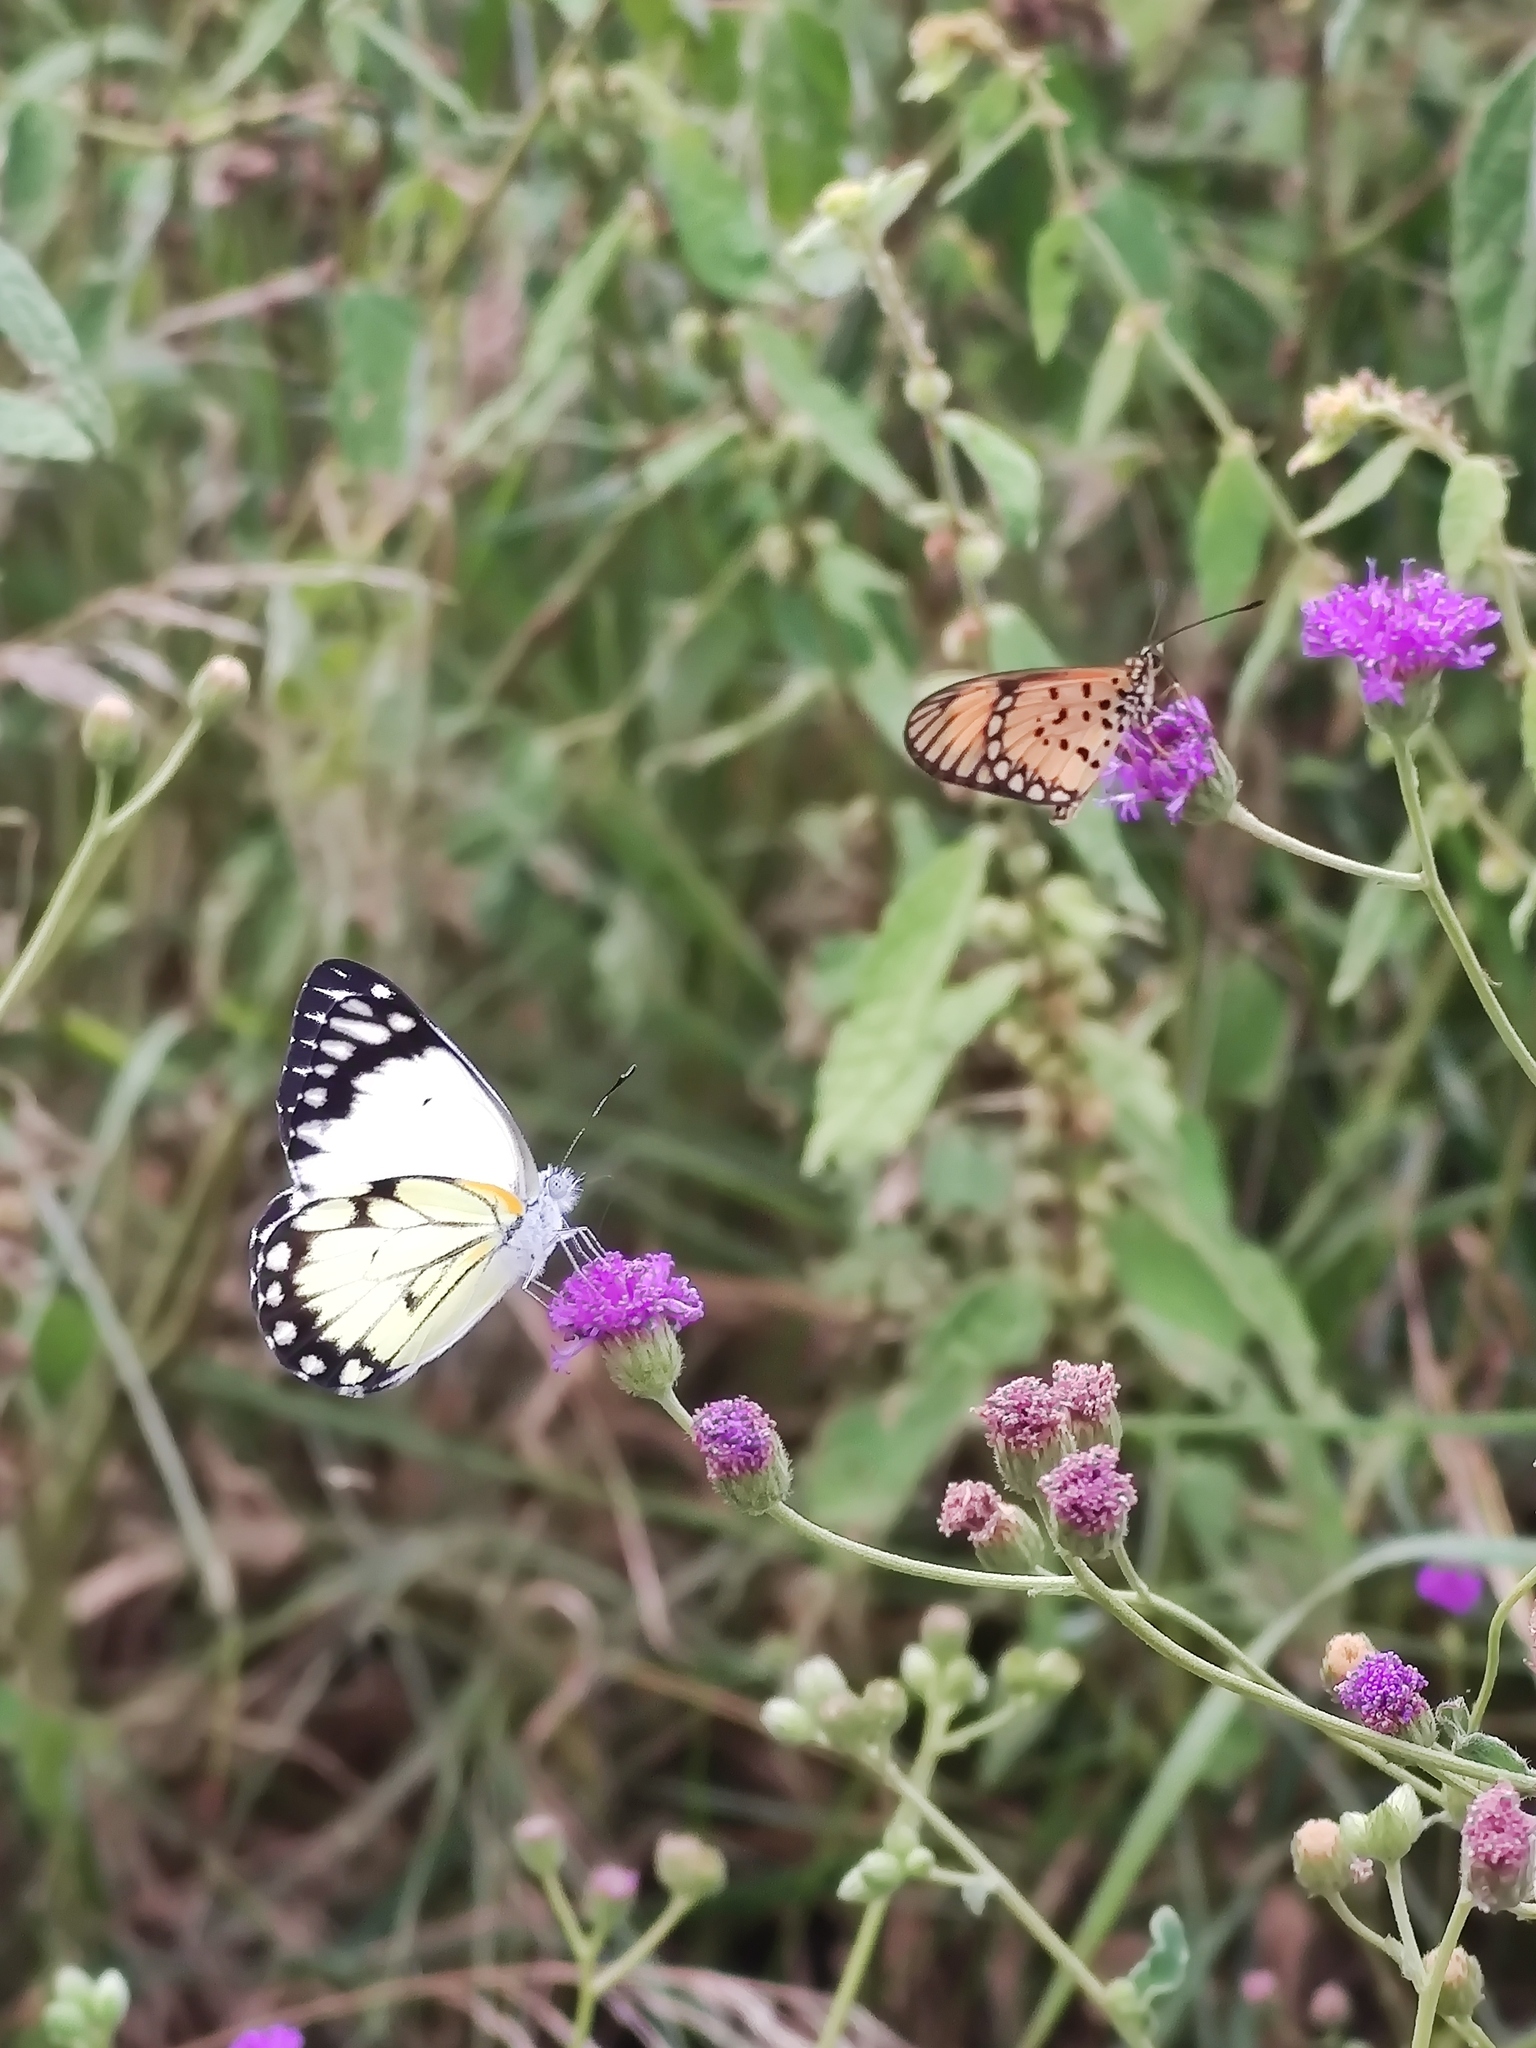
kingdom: Animalia
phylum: Arthropoda
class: Insecta
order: Lepidoptera
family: Pieridae
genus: Belenois
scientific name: Belenois creona
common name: African caper white
